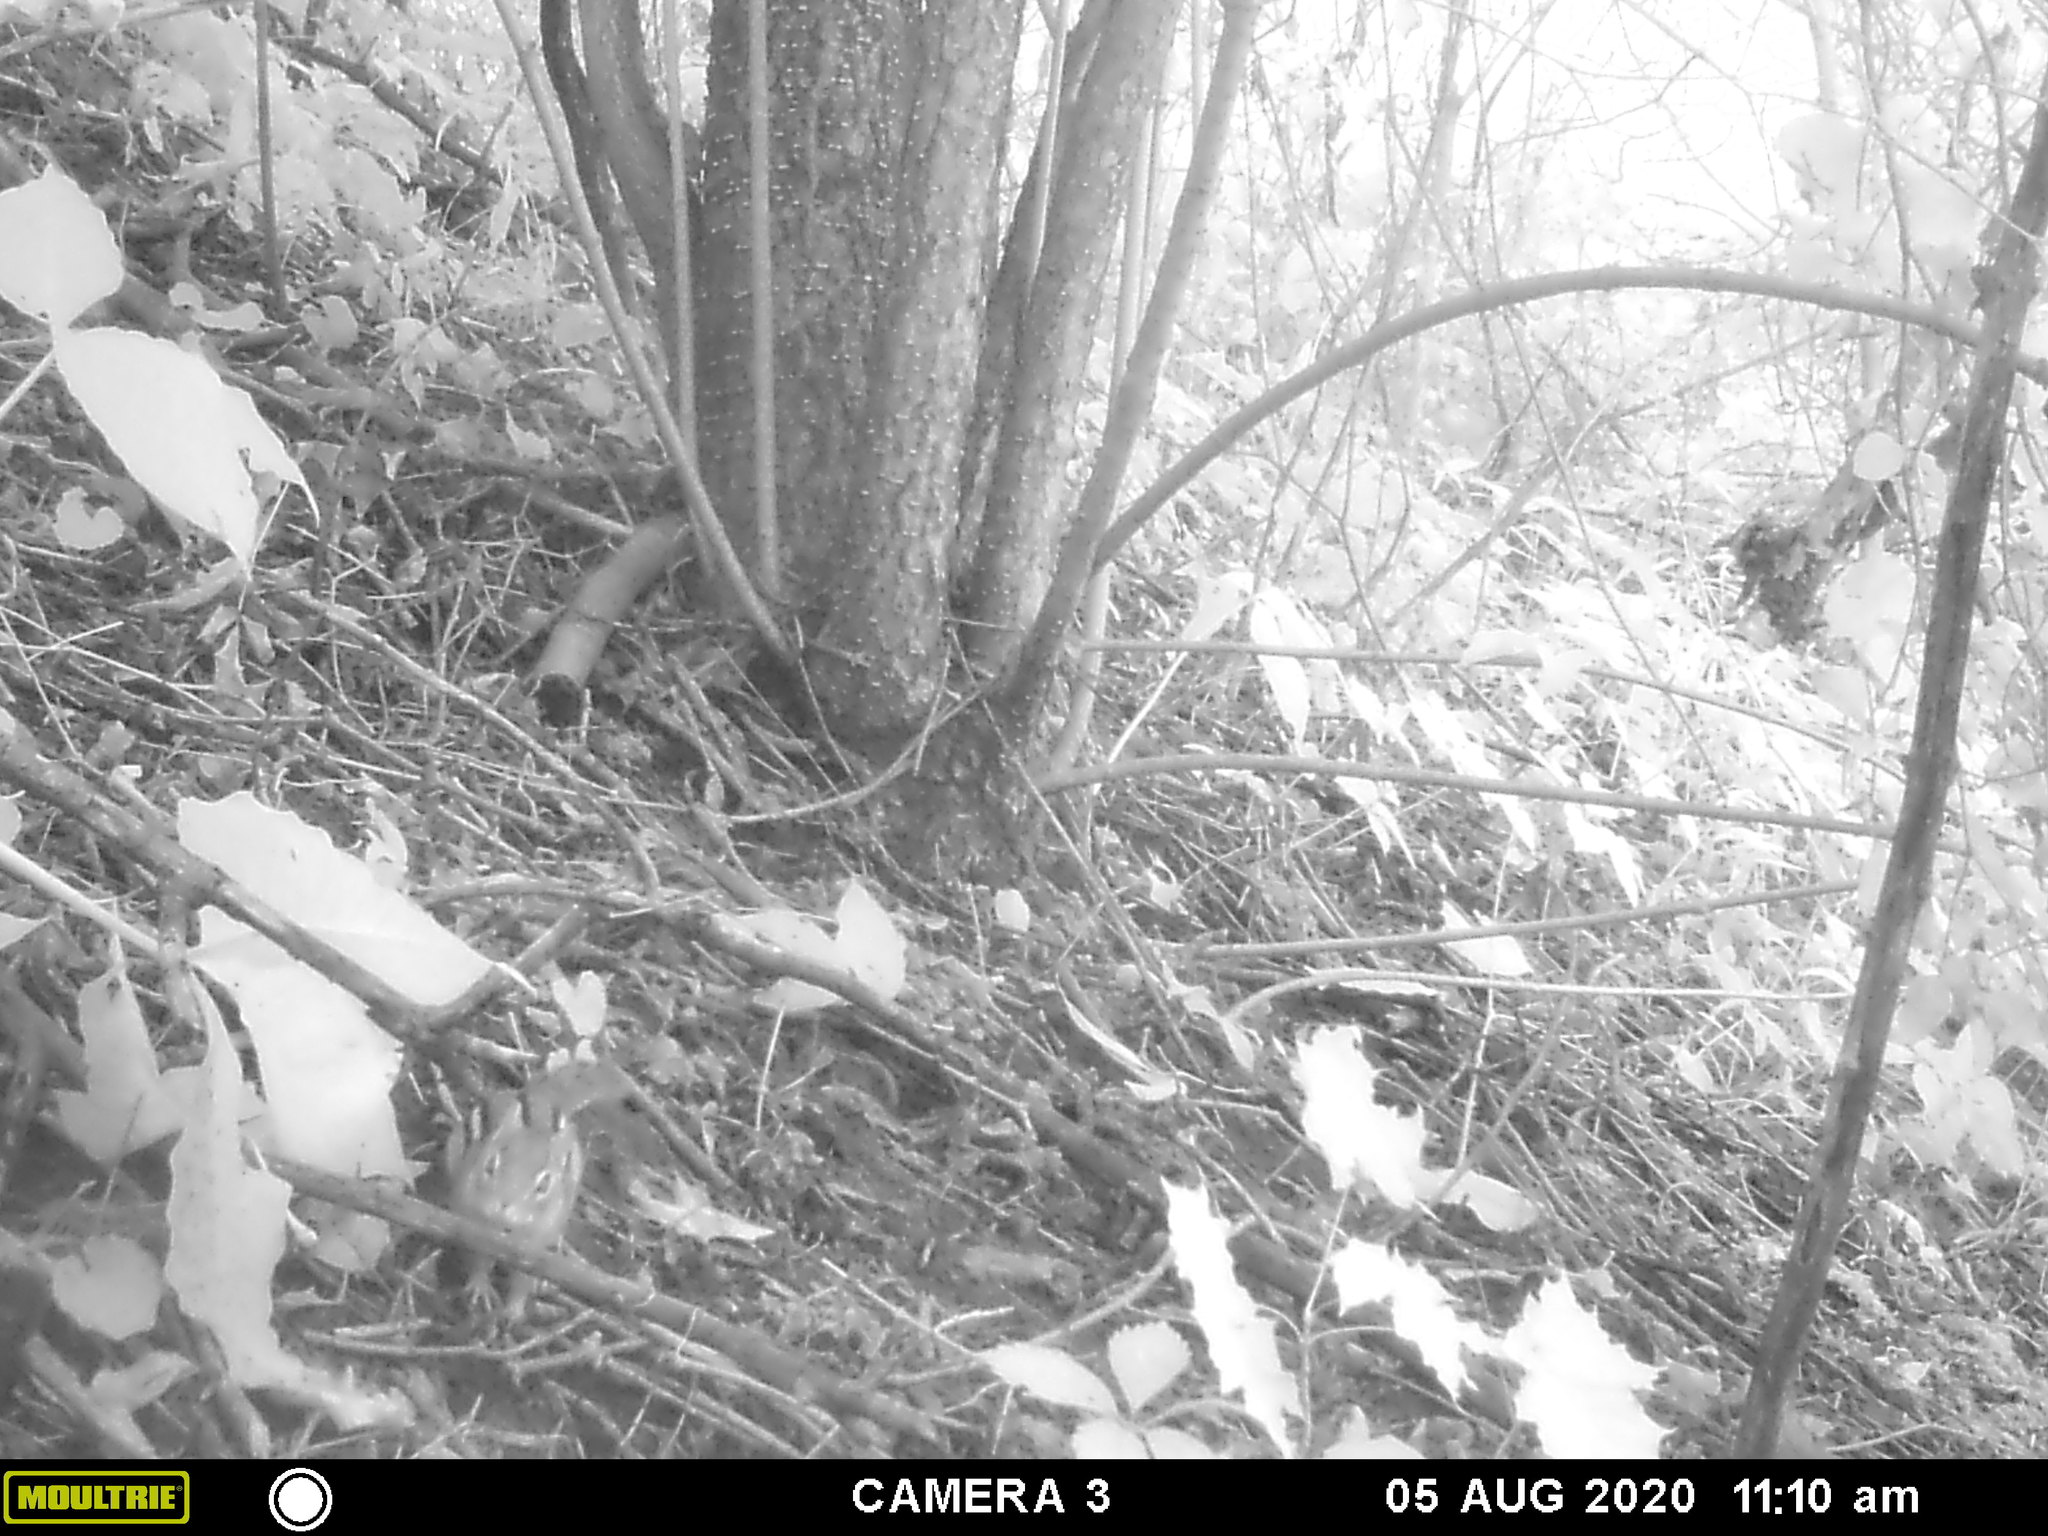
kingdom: Animalia
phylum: Chordata
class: Mammalia
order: Rodentia
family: Sciuridae
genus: Tamias
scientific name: Tamias striatus
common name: Eastern chipmunk
